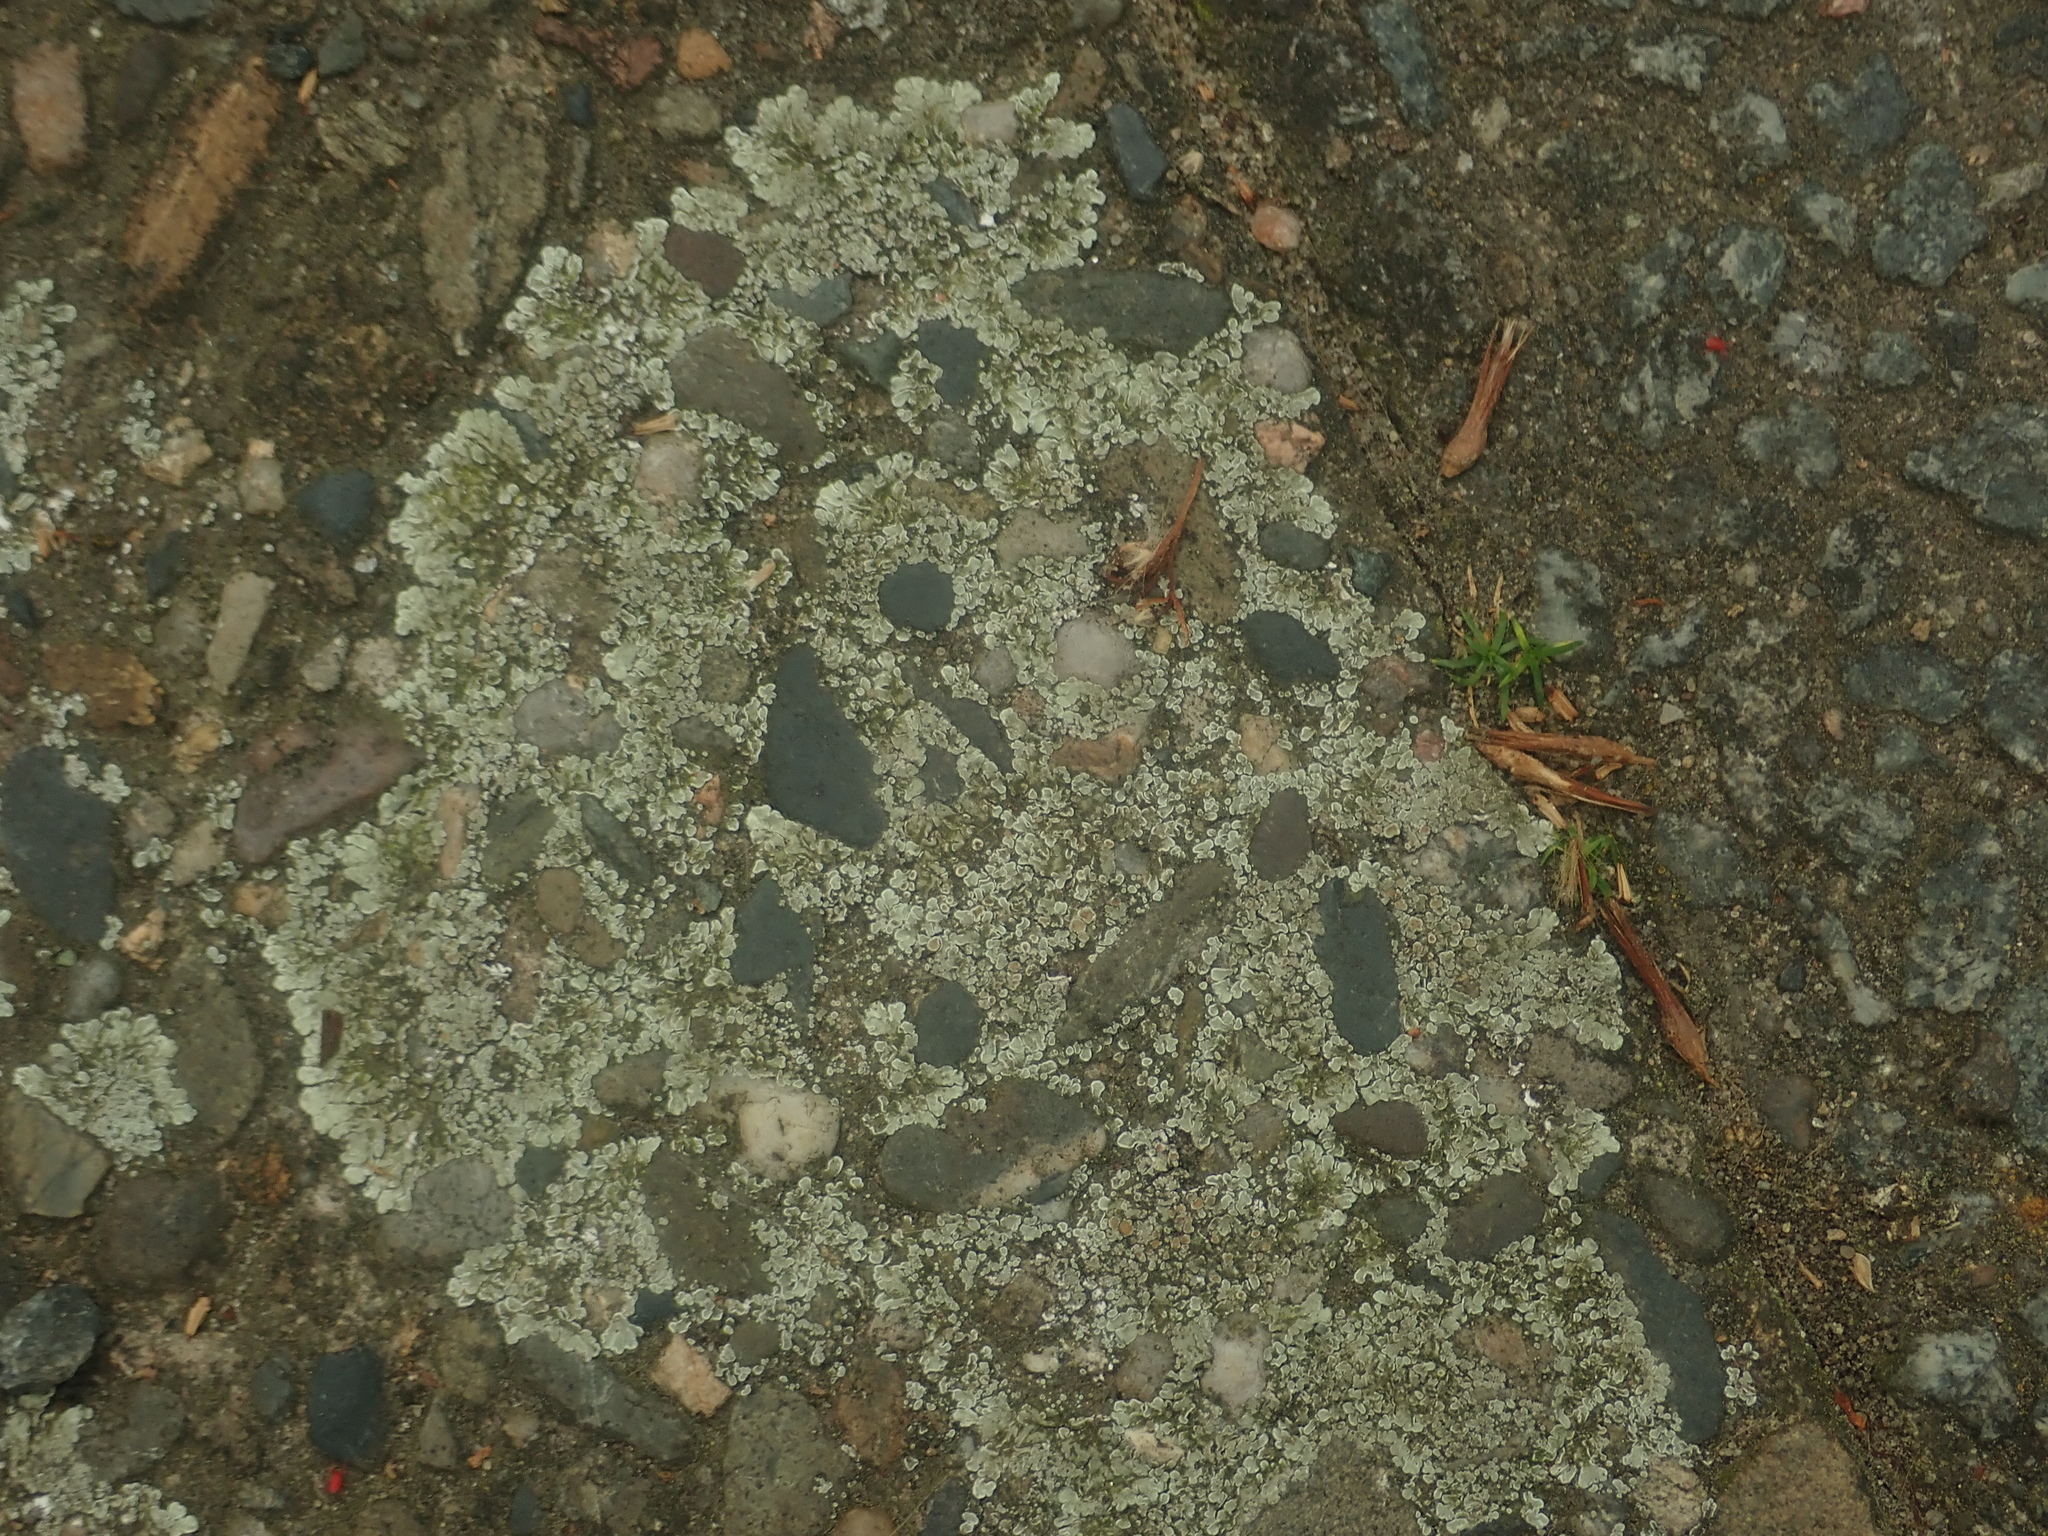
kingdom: Fungi
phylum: Ascomycota
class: Lecanoromycetes
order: Lecanorales
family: Lecanoraceae
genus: Protoparmeliopsis
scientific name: Protoparmeliopsis muralis
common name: Stonewall rim lichen
